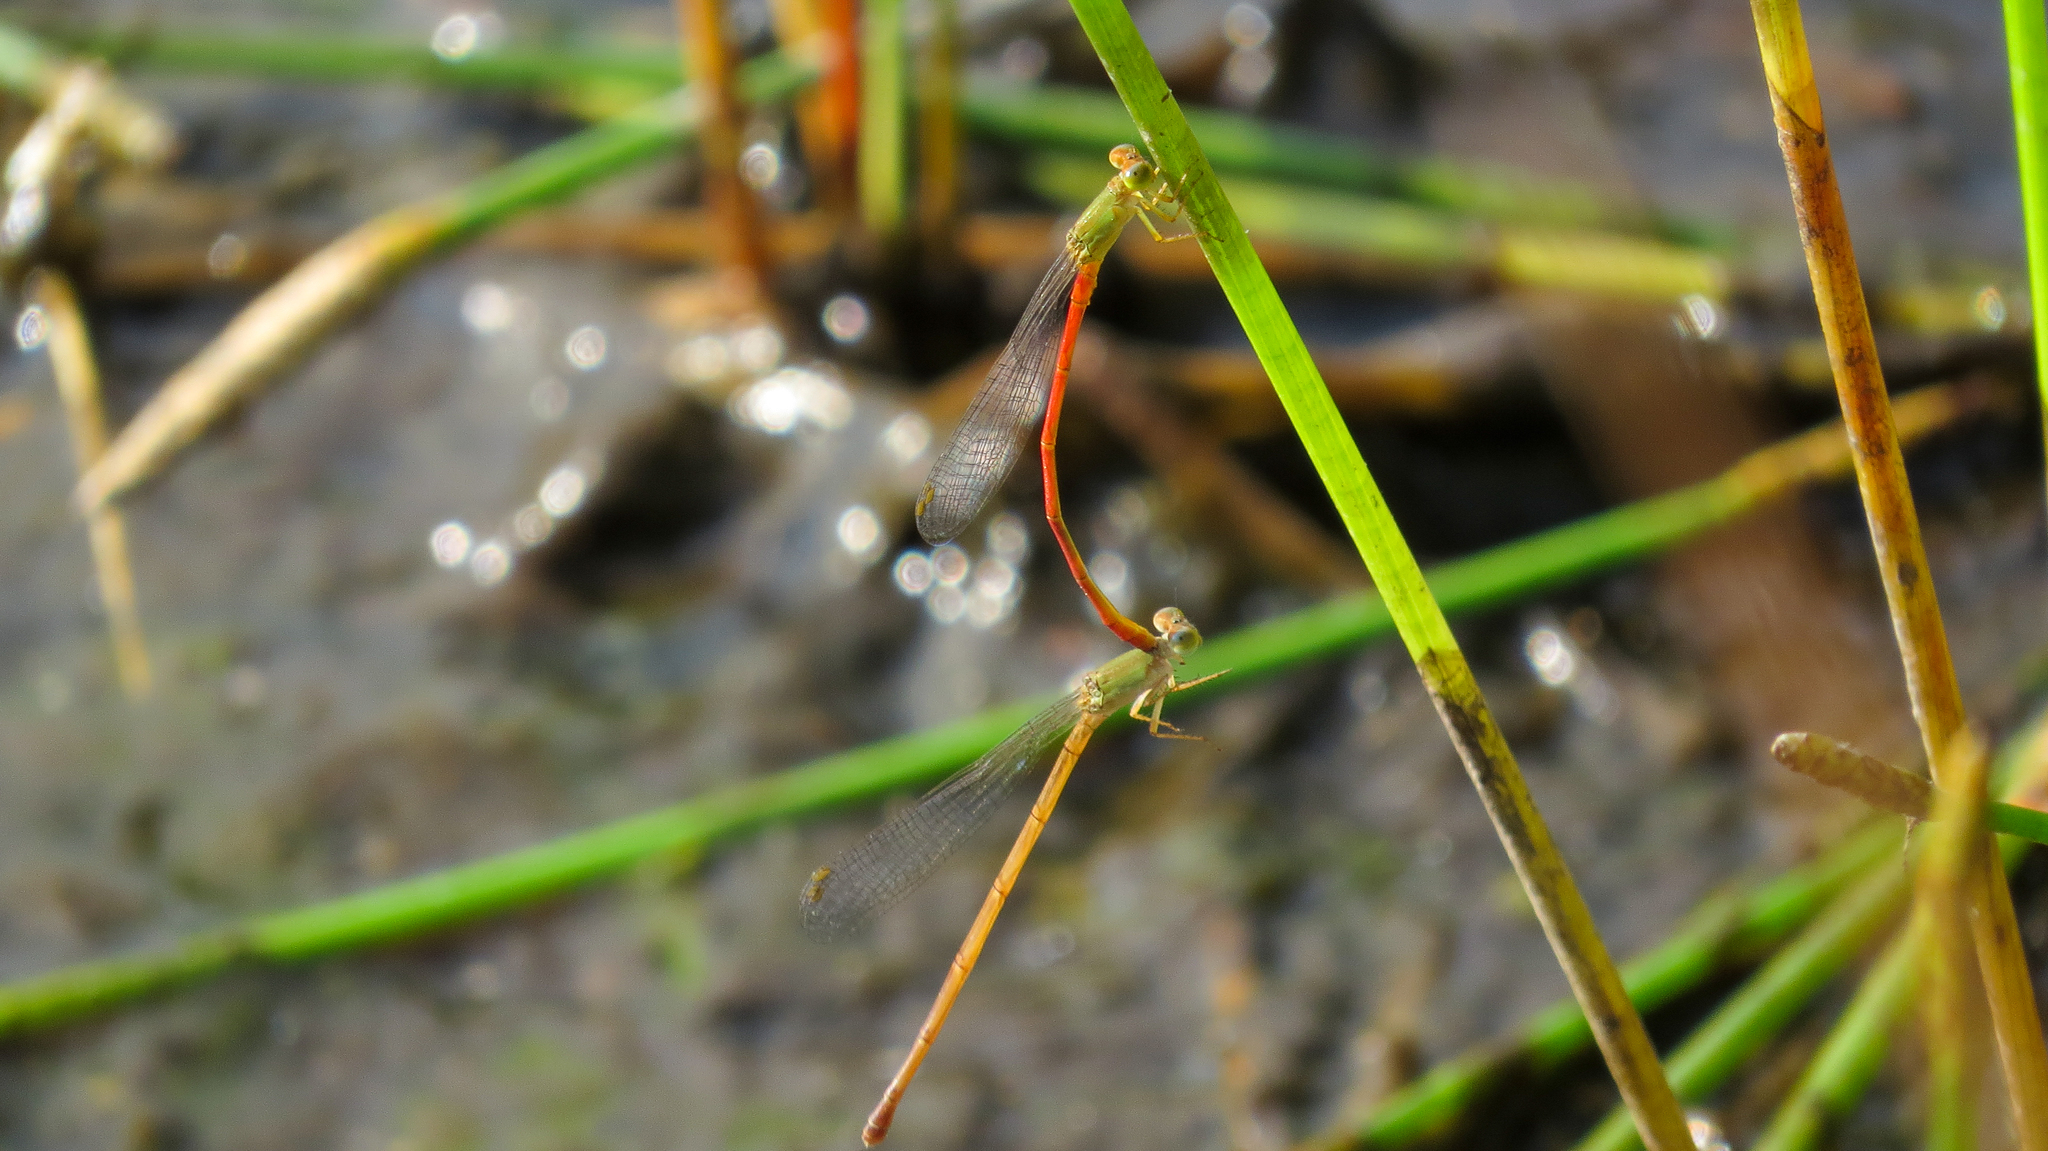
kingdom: Animalia
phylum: Arthropoda
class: Insecta
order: Odonata
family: Coenagrionidae
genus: Ceriagrion
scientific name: Ceriagrion aeruginosum
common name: Redtail
